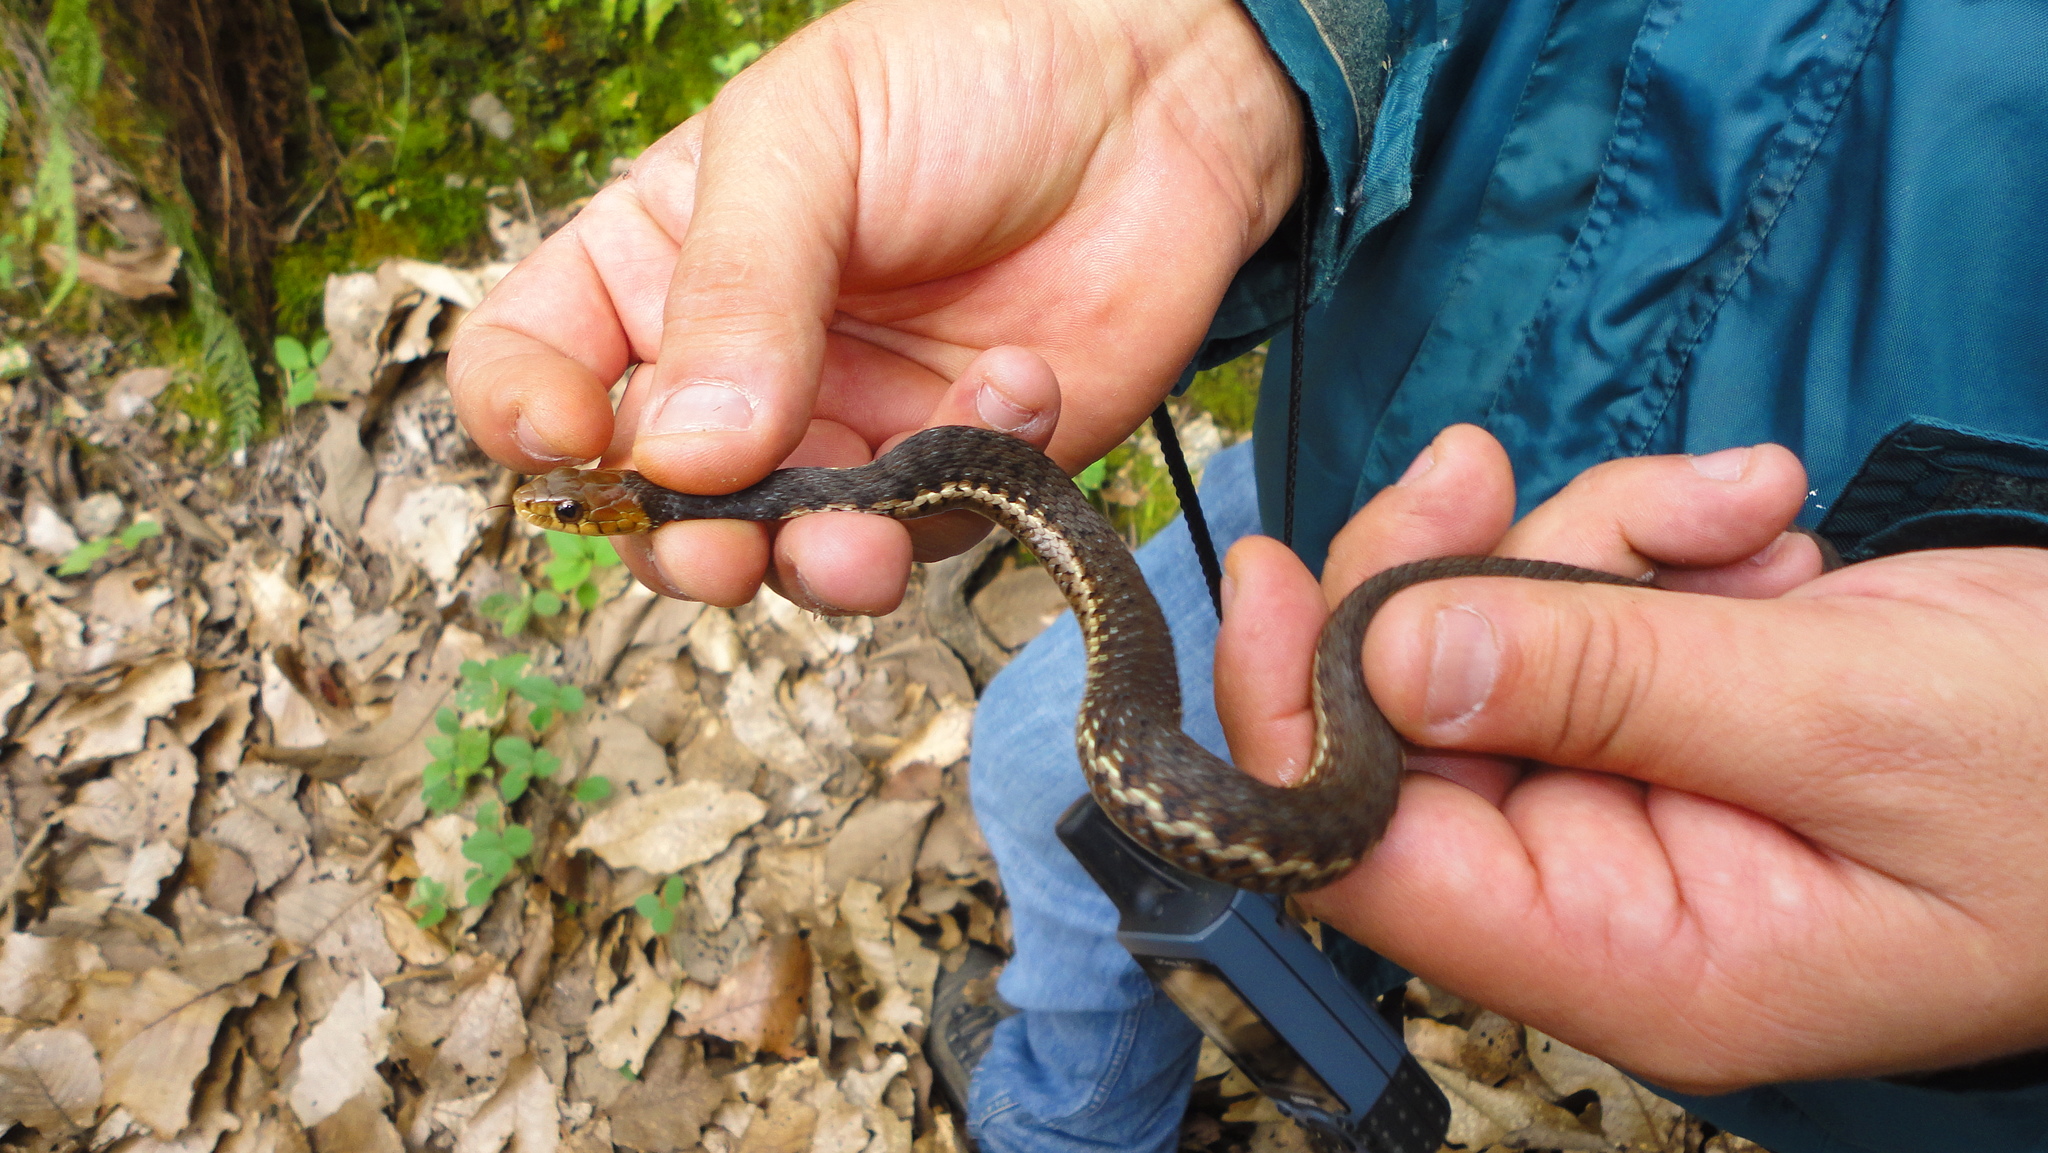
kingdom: Animalia
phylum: Chordata
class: Squamata
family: Colubridae
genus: Thamnophis
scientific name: Thamnophis chrysocephalus
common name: Goldenhead garter snake
